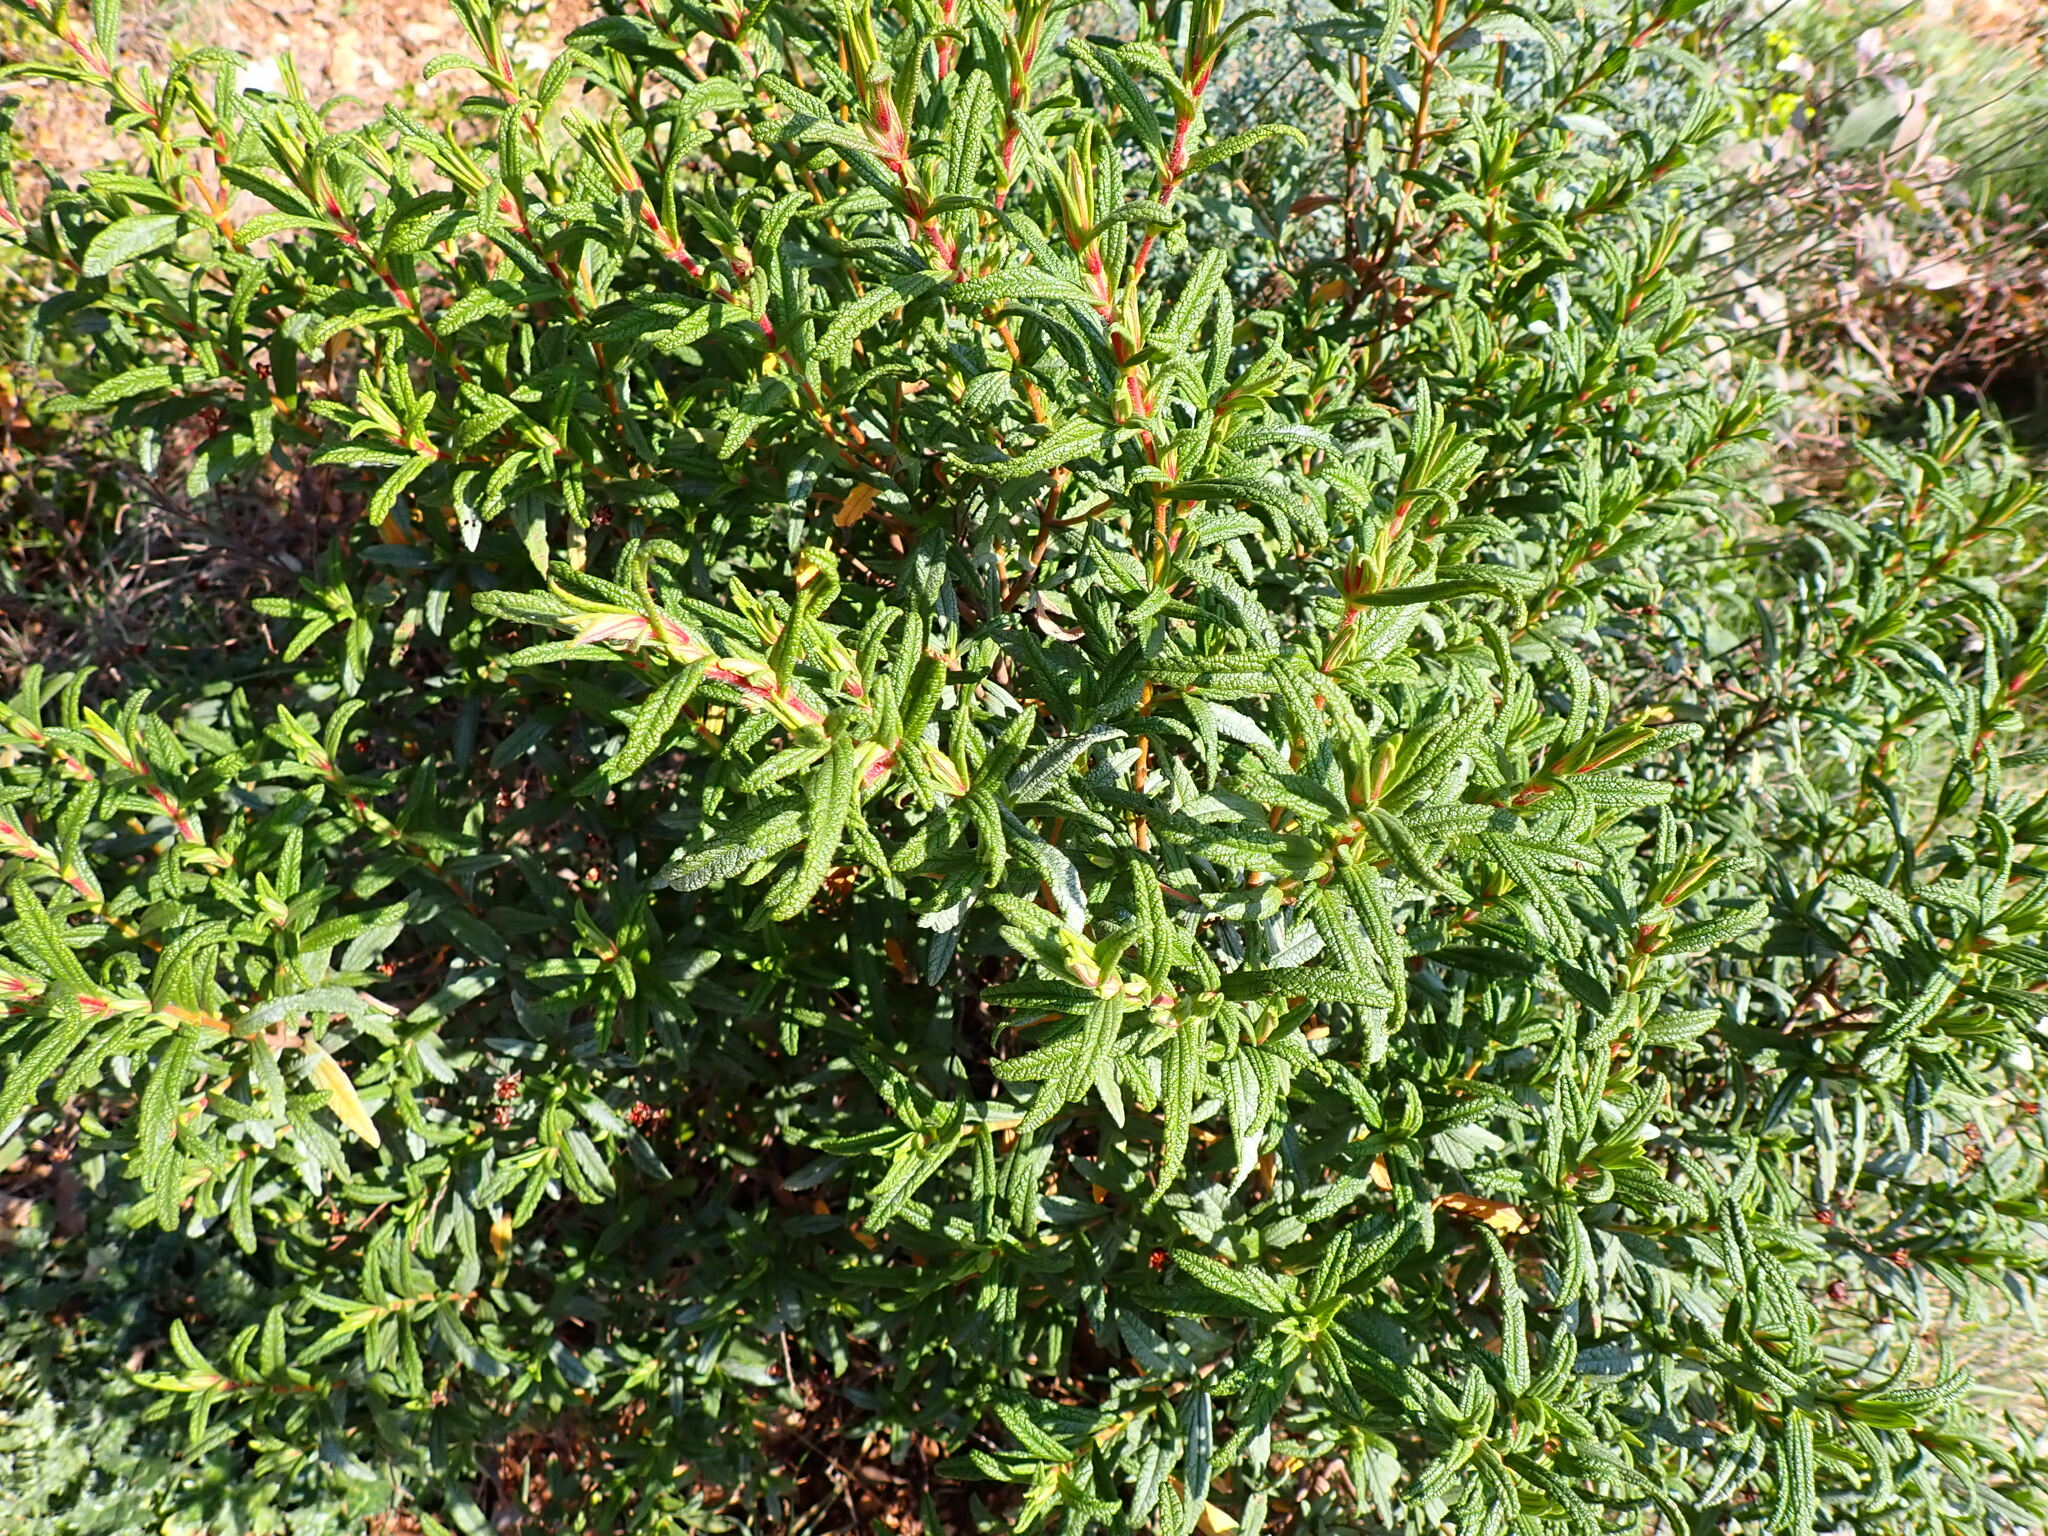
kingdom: Plantae
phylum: Tracheophyta
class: Magnoliopsida
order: Malvales
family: Cistaceae
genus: Cistus
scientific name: Cistus monspeliensis
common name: Montpelier cistus
